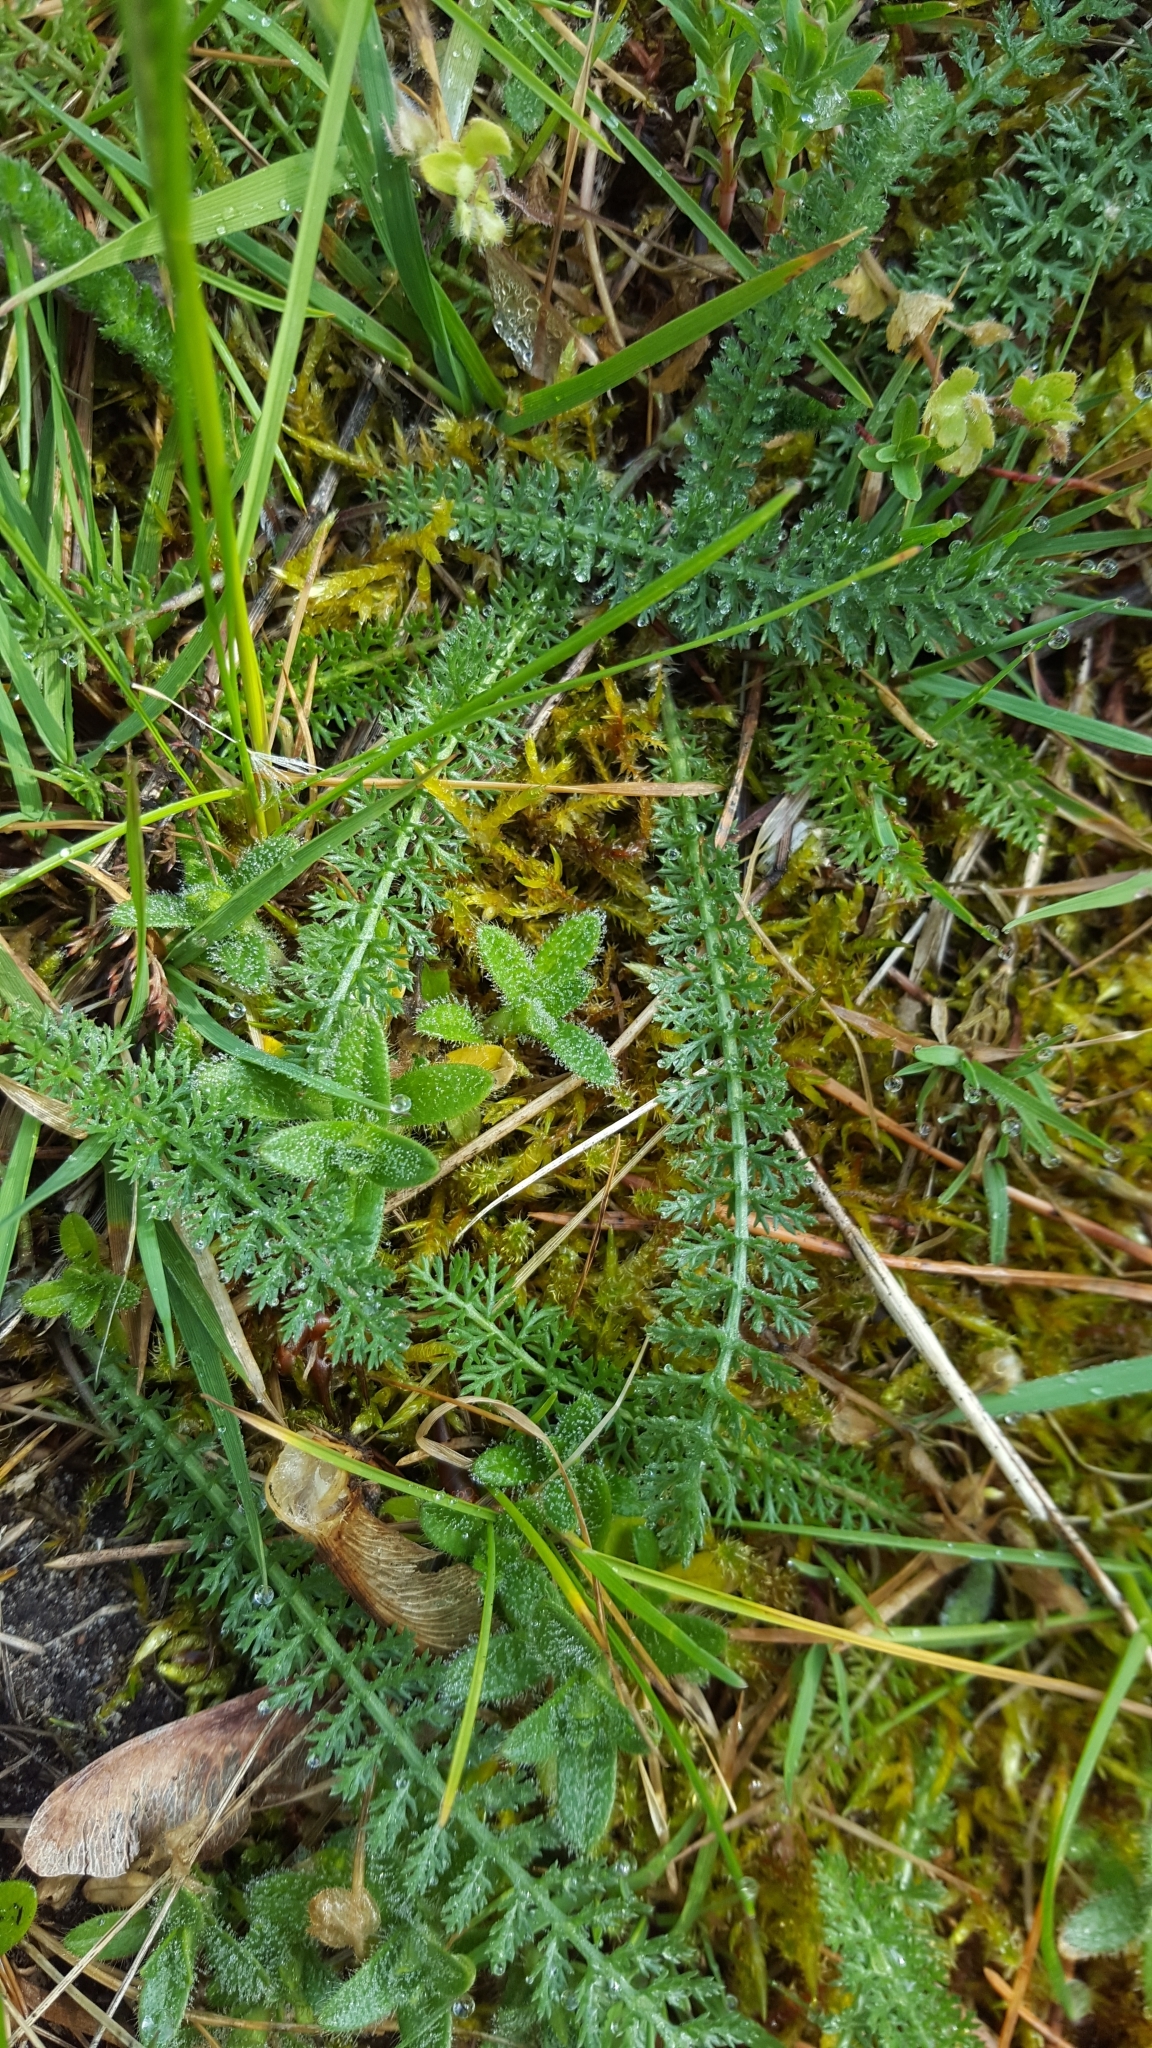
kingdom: Plantae
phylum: Tracheophyta
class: Magnoliopsida
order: Asterales
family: Asteraceae
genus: Achillea
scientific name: Achillea millefolium
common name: Yarrow
